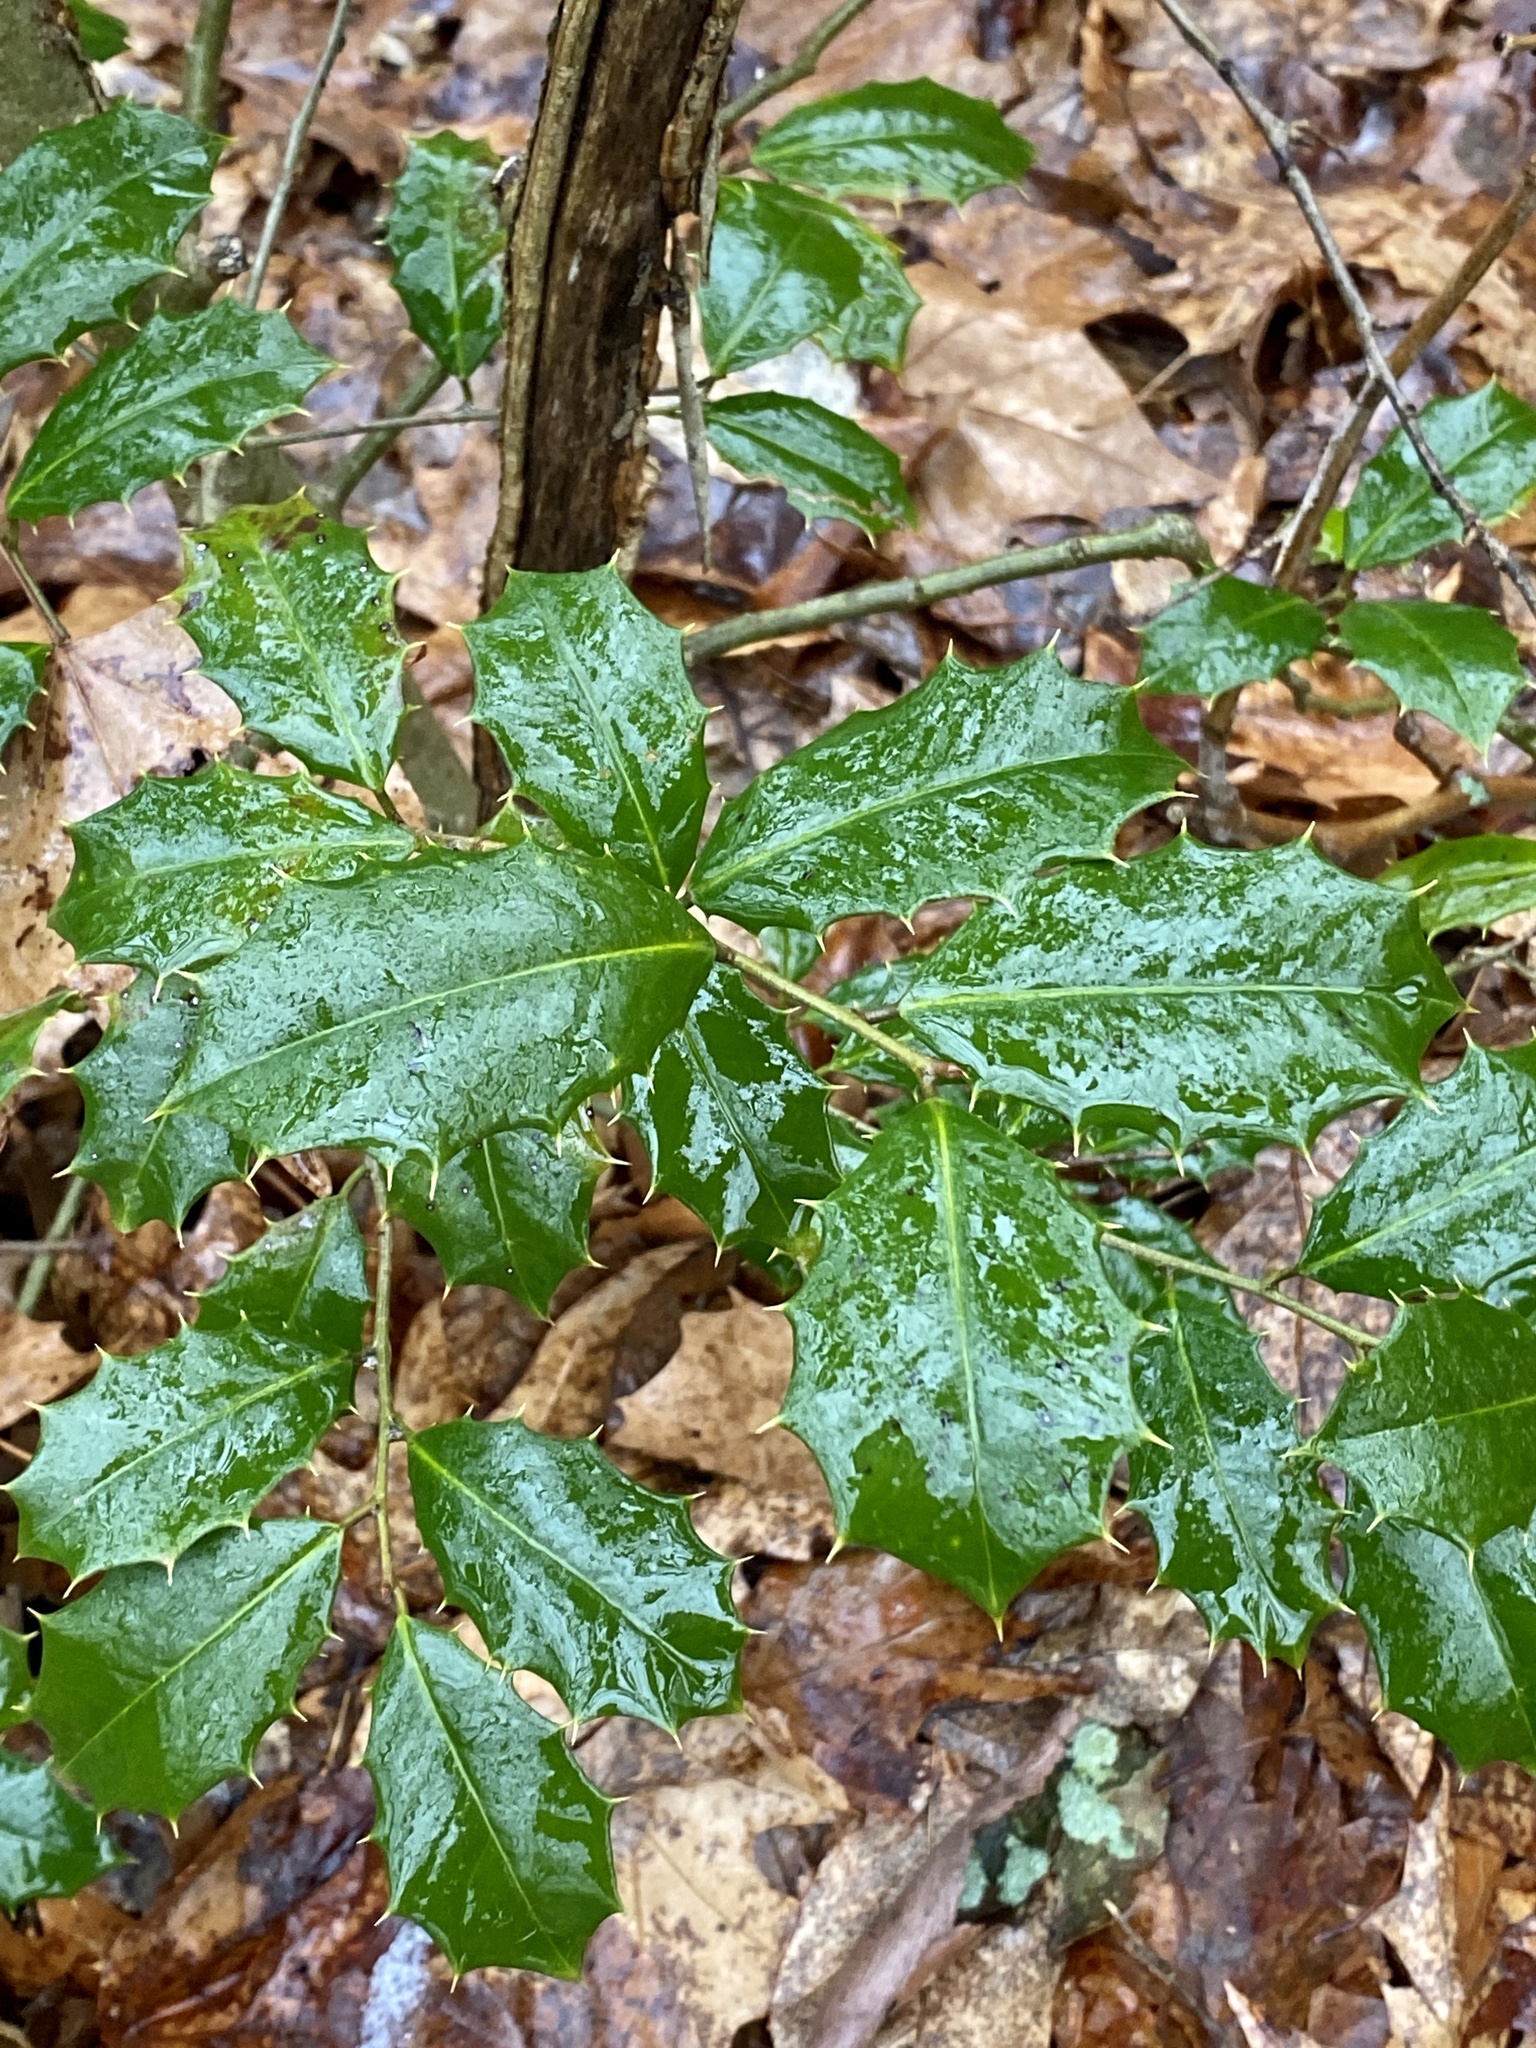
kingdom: Plantae
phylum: Tracheophyta
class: Magnoliopsida
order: Aquifoliales
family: Aquifoliaceae
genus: Ilex
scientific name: Ilex opaca
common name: American holly
